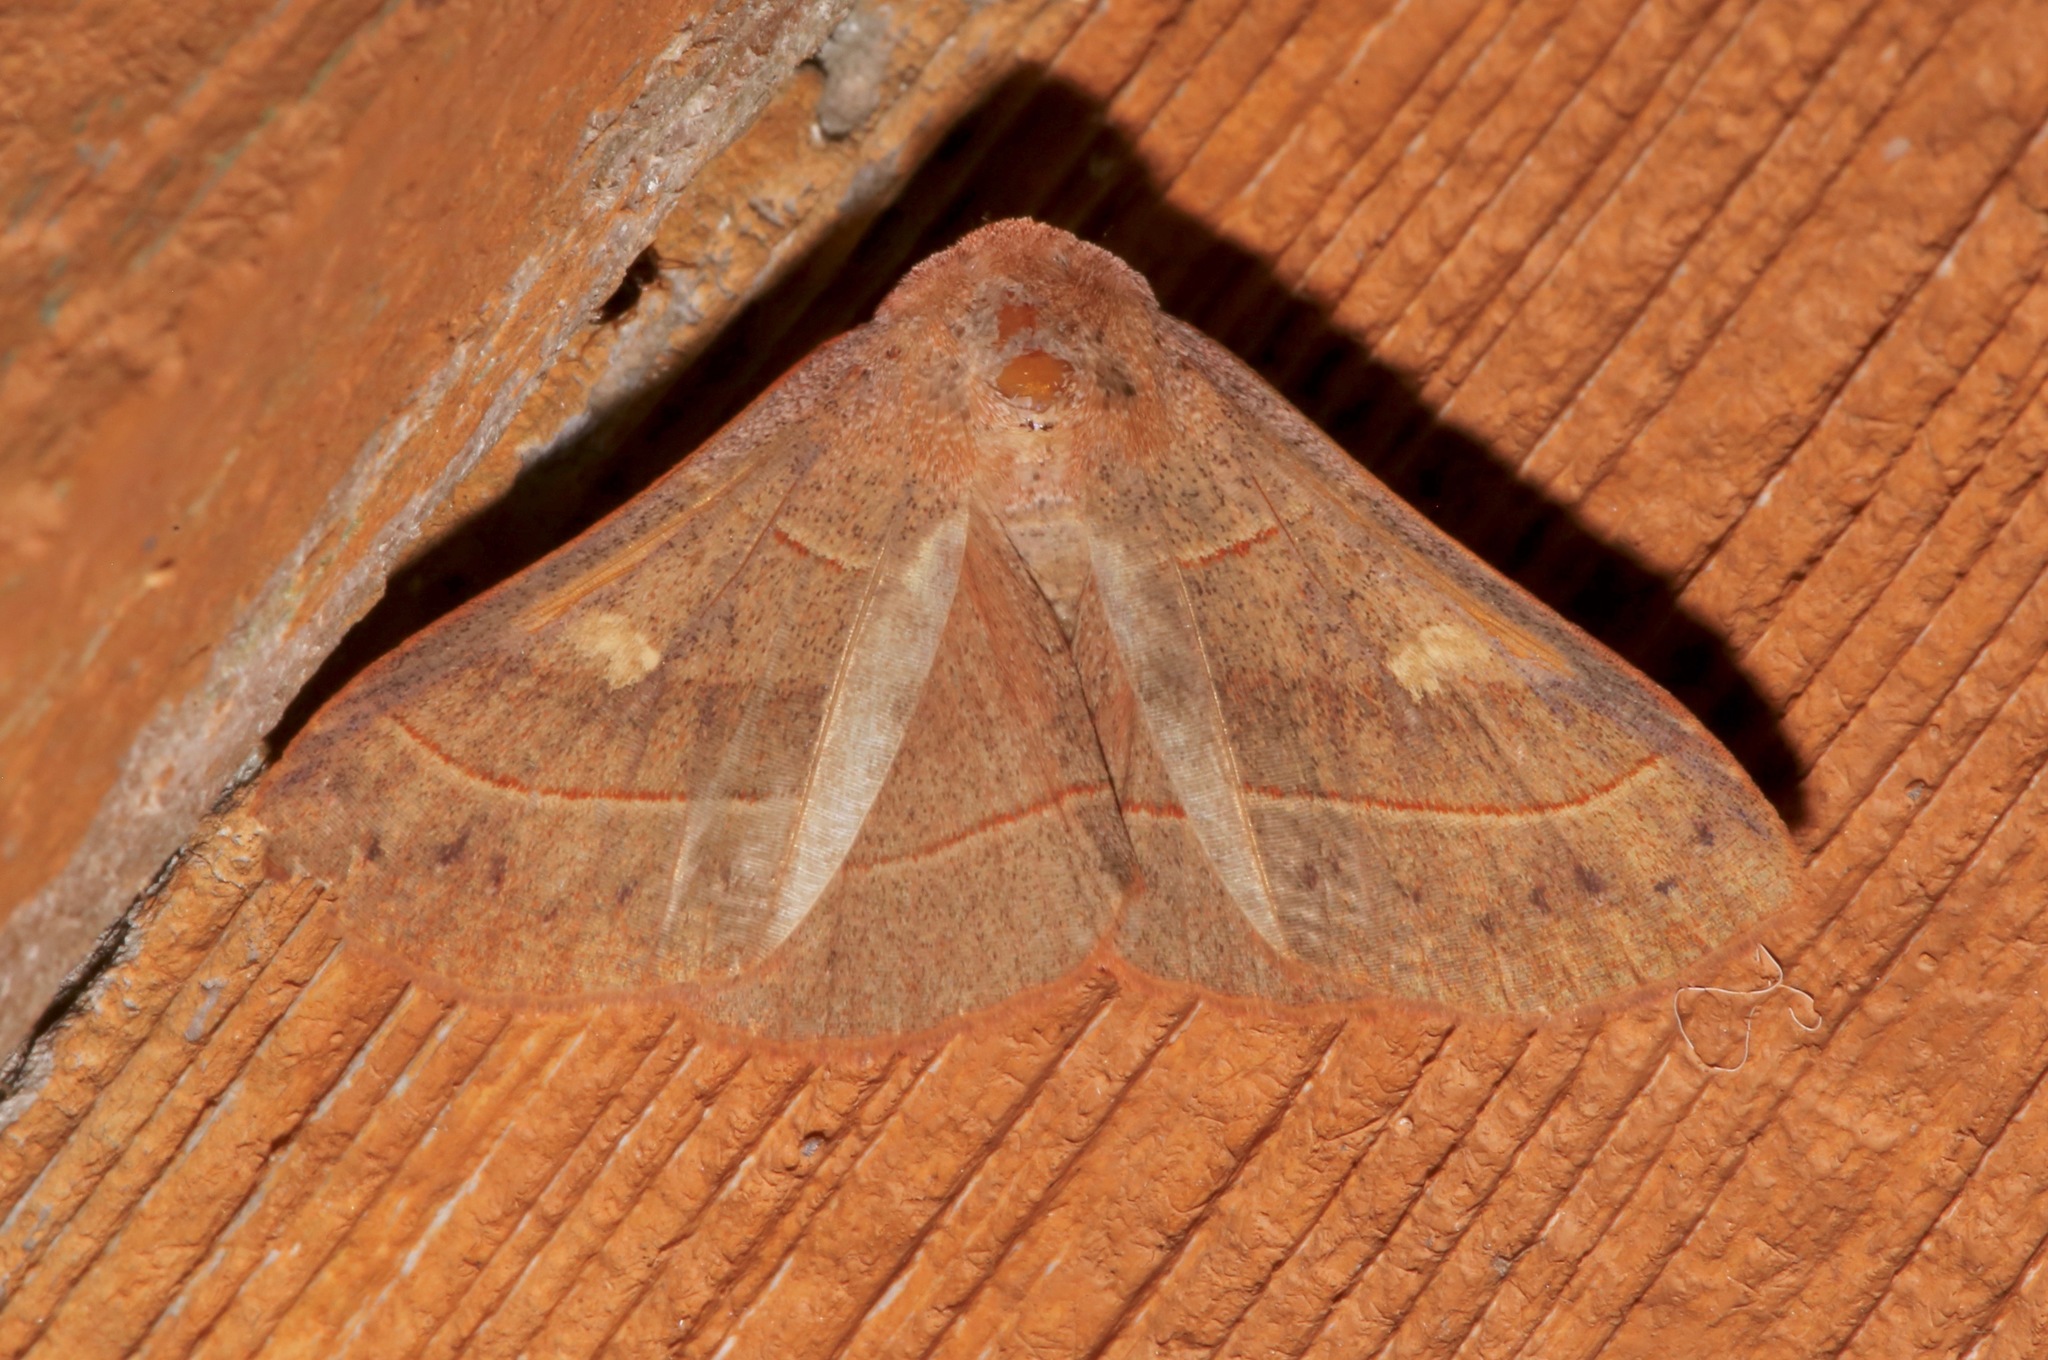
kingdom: Animalia
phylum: Arthropoda
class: Insecta
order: Lepidoptera
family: Erebidae
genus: Panopoda
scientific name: Panopoda rufimargo
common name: Red-lined panopoda moth
